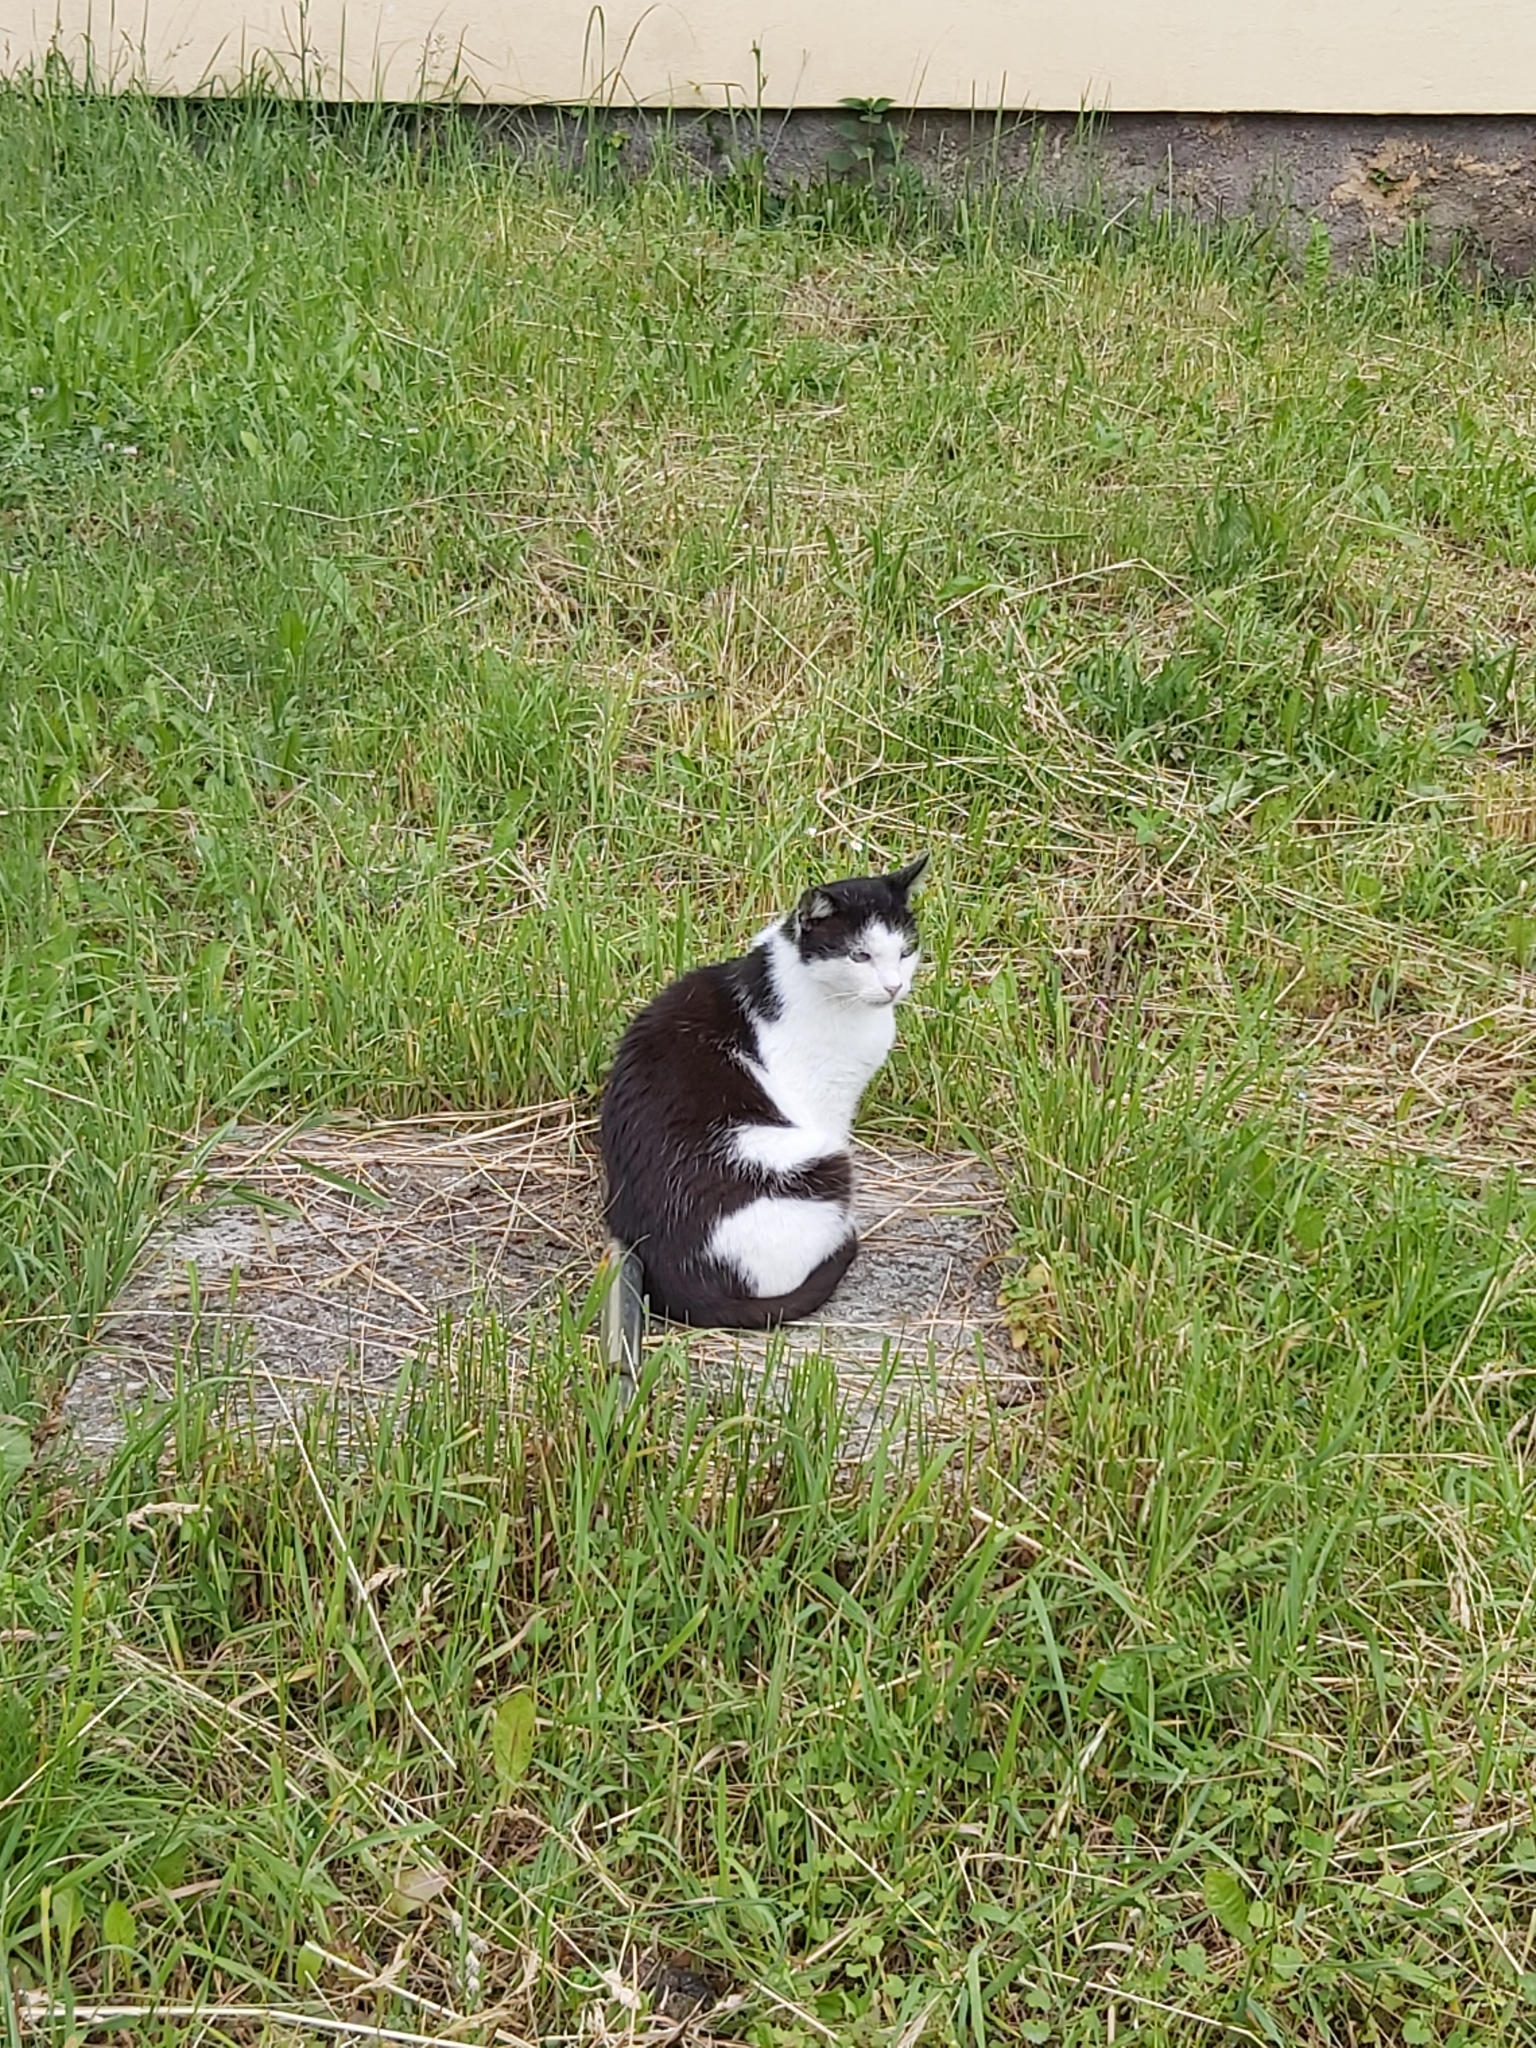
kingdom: Animalia
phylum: Chordata
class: Mammalia
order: Carnivora
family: Felidae
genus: Felis
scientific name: Felis catus
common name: Domestic cat
